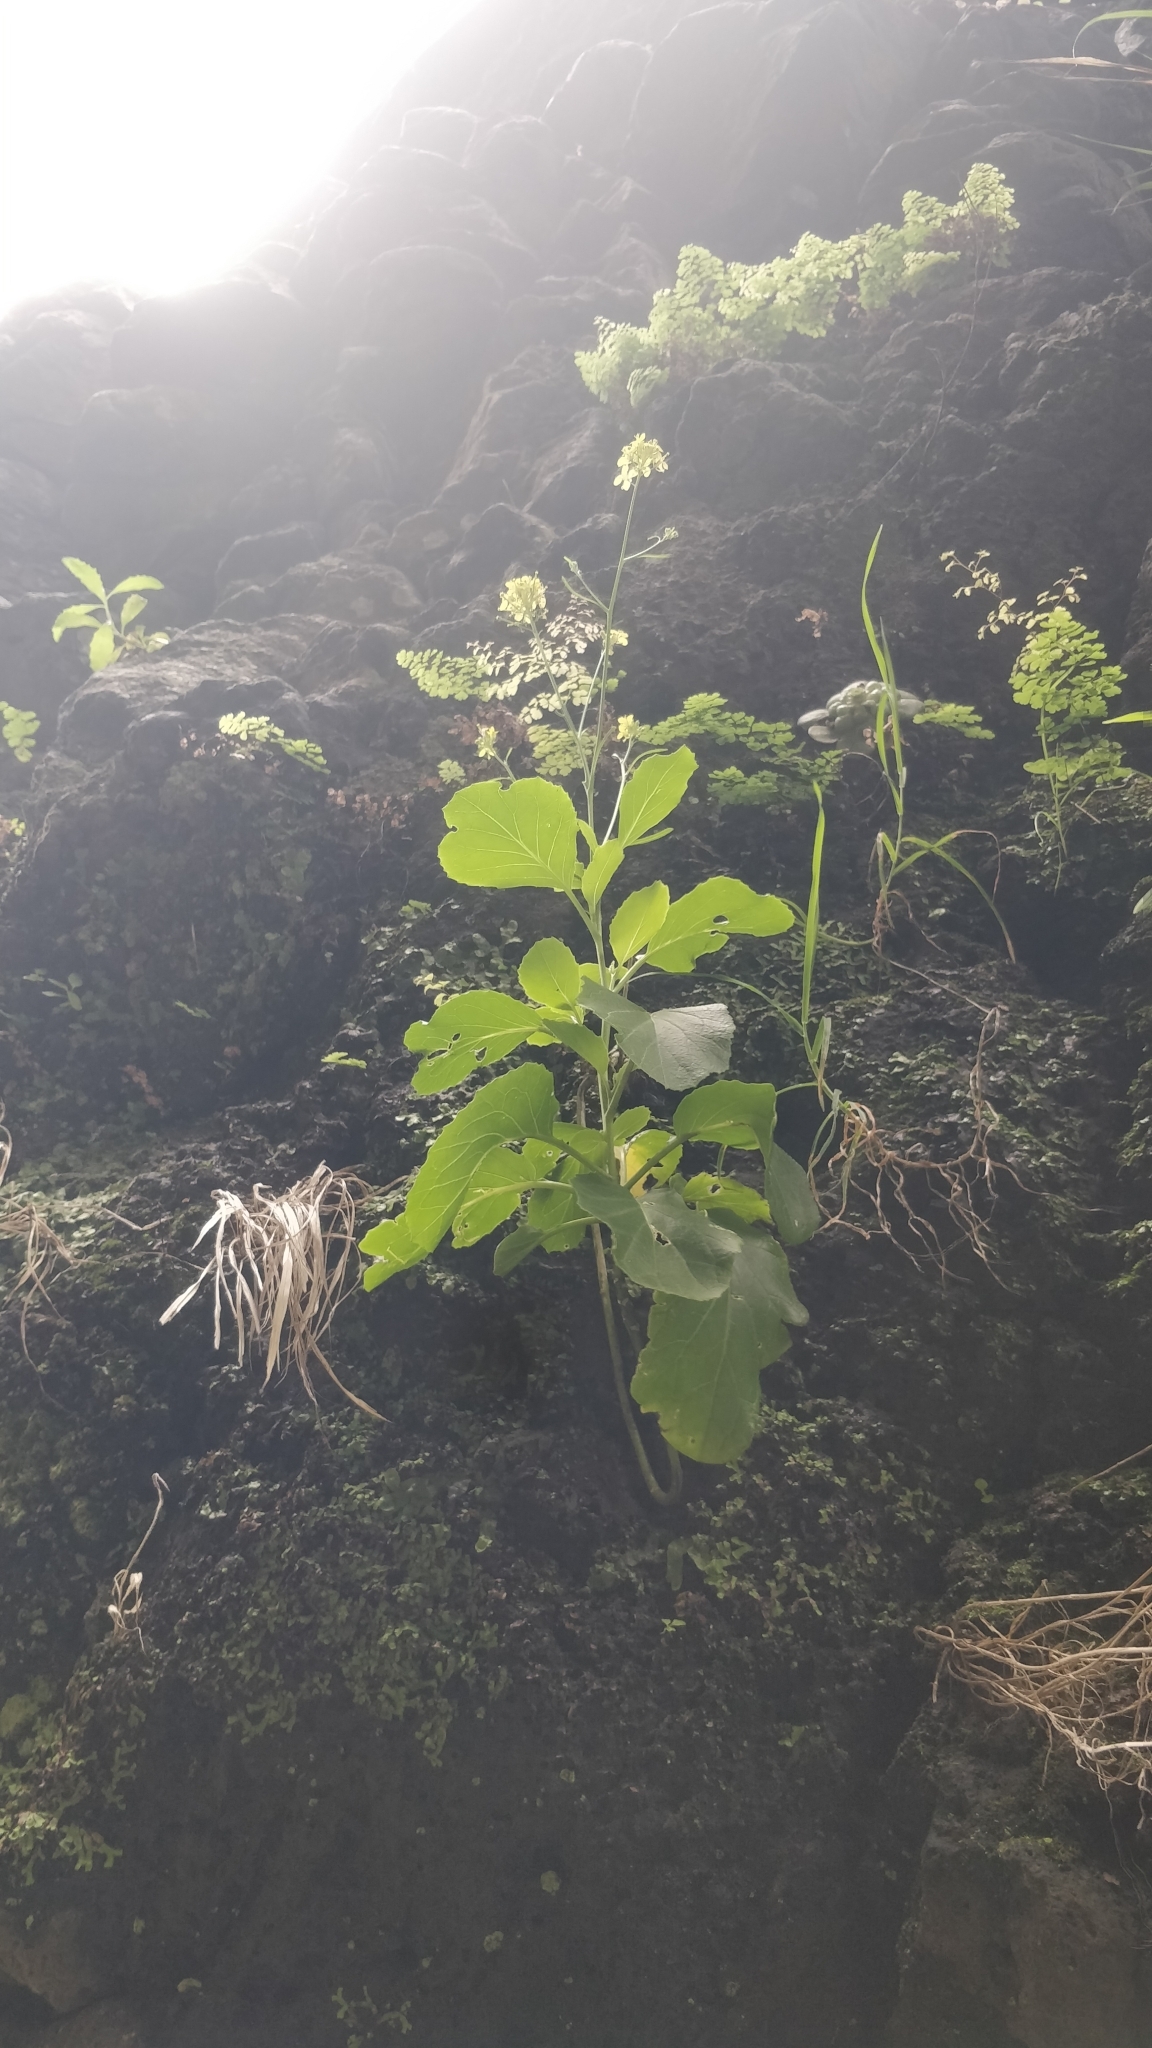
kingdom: Plantae
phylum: Tracheophyta
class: Magnoliopsida
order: Brassicales
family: Brassicaceae
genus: Sinapidendron
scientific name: Sinapidendron rupestre
